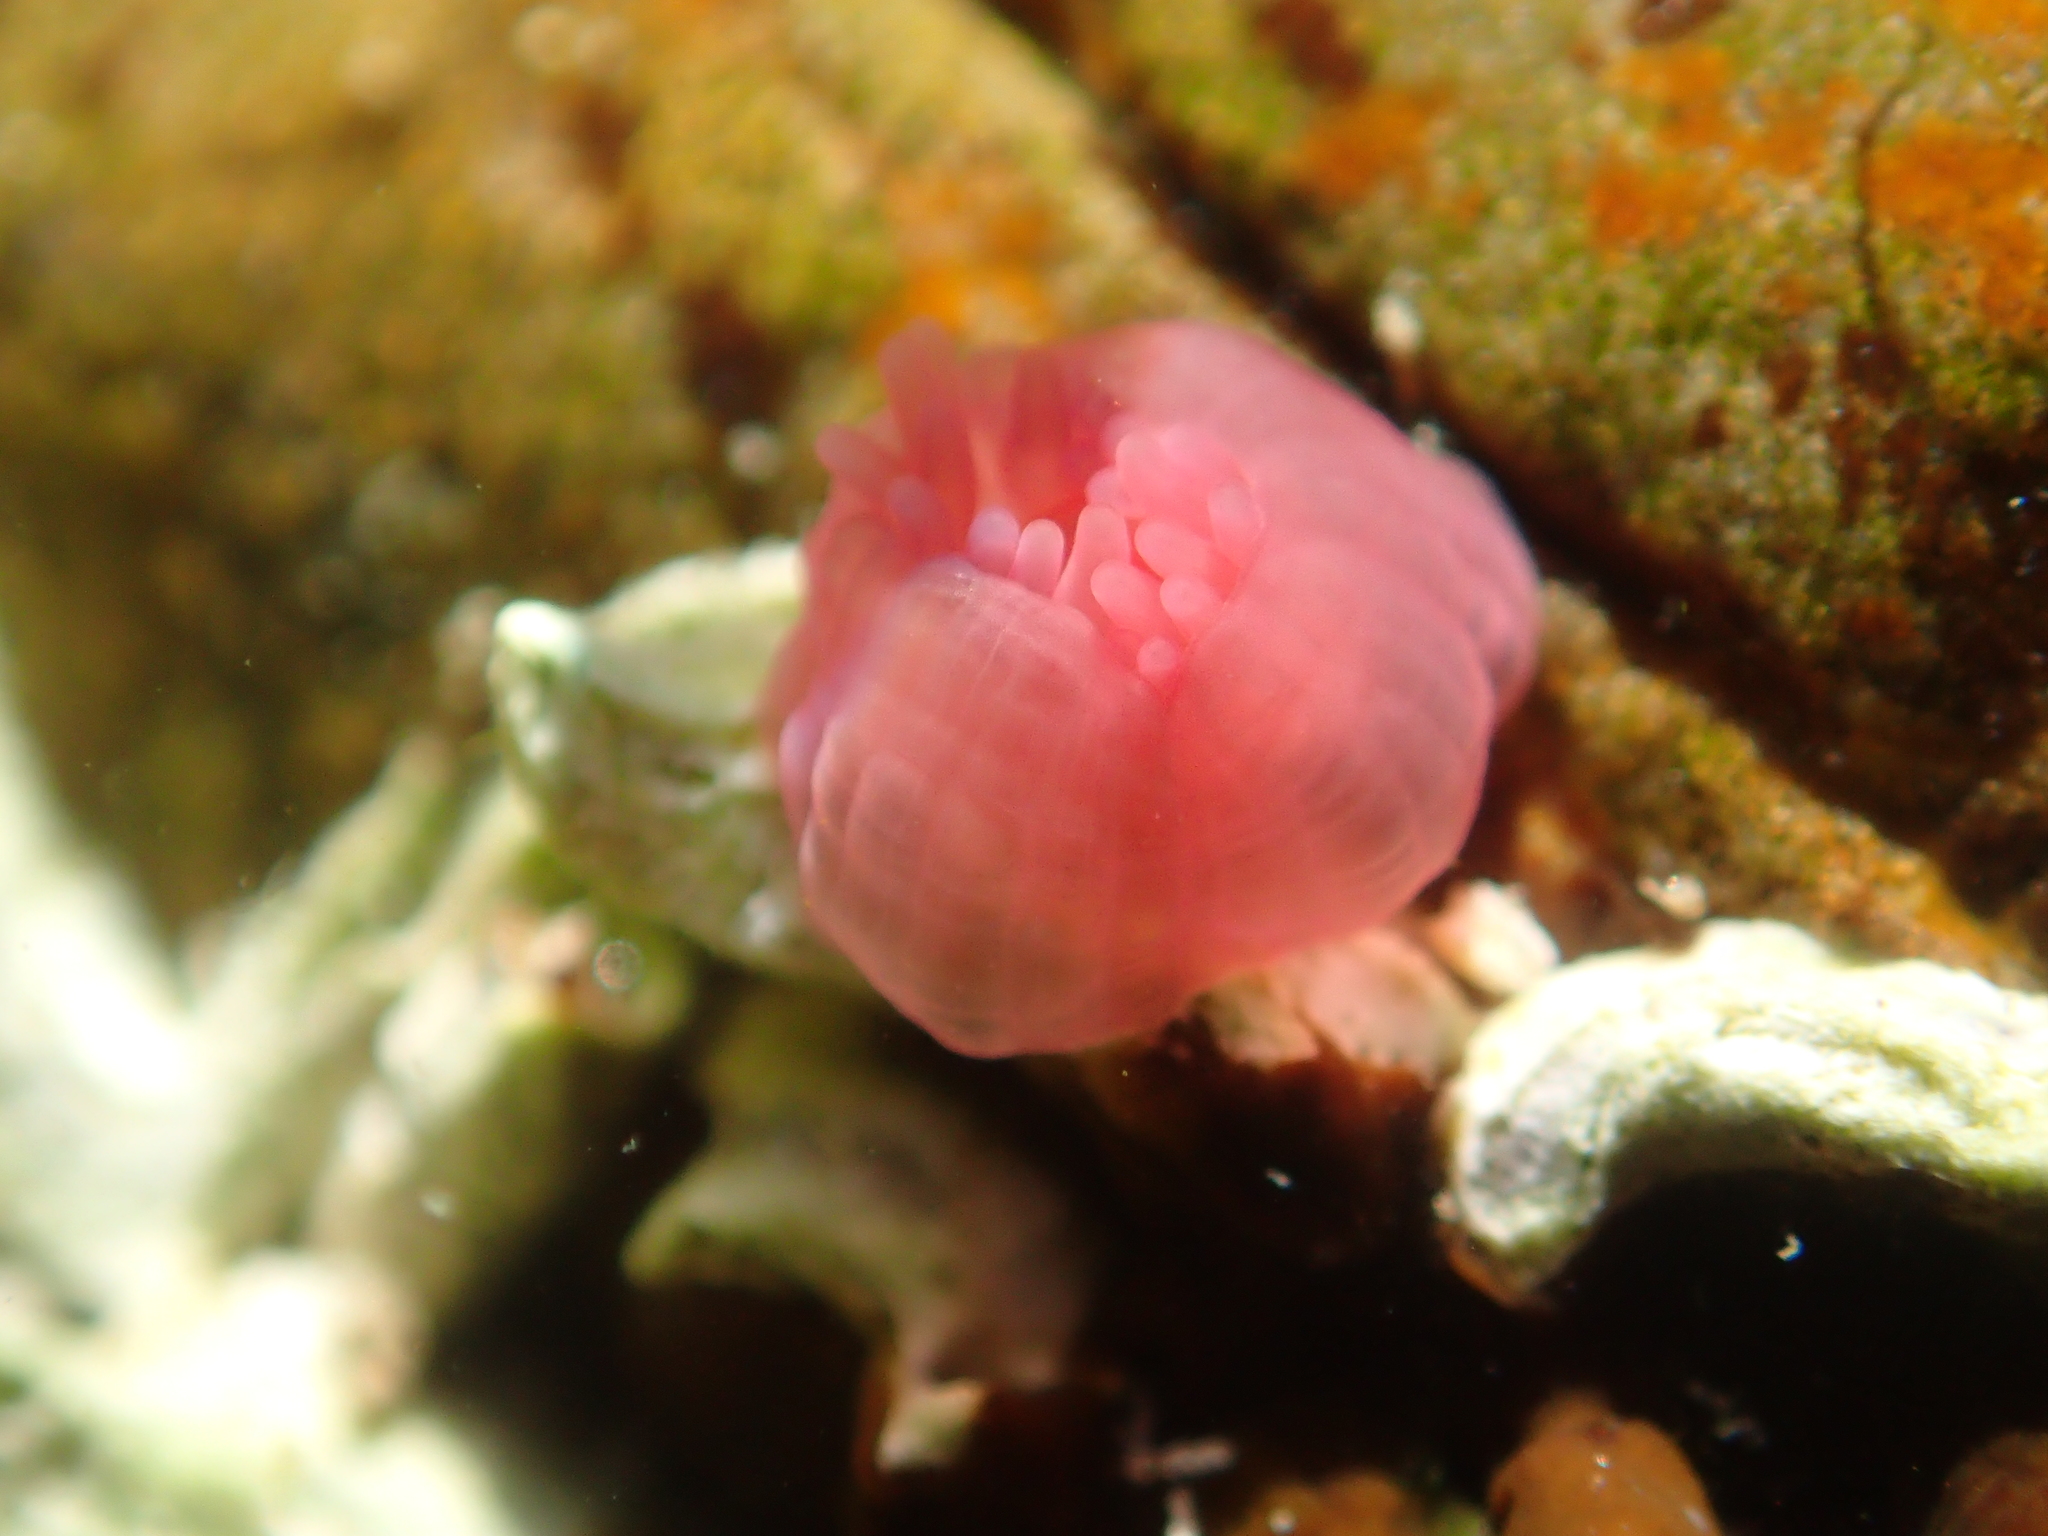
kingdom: Animalia
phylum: Cnidaria
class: Anthozoa
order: Actiniaria
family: Actiniidae
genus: Actinia
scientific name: Actinia tenebrosa
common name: Waratah anemone
